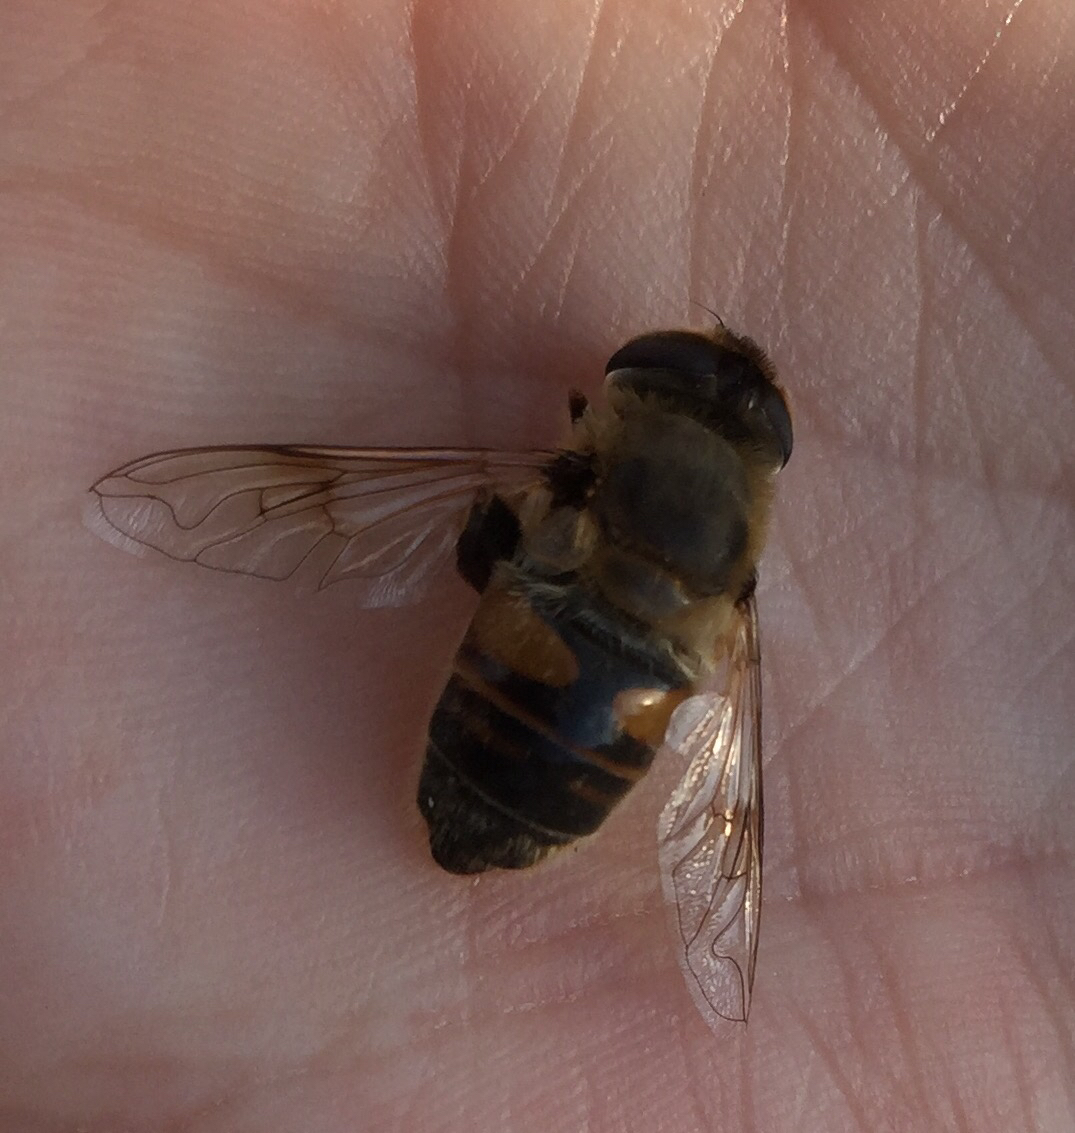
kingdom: Animalia
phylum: Arthropoda
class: Insecta
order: Diptera
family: Syrphidae
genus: Eristalis
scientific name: Eristalis tenax
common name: Drone fly
